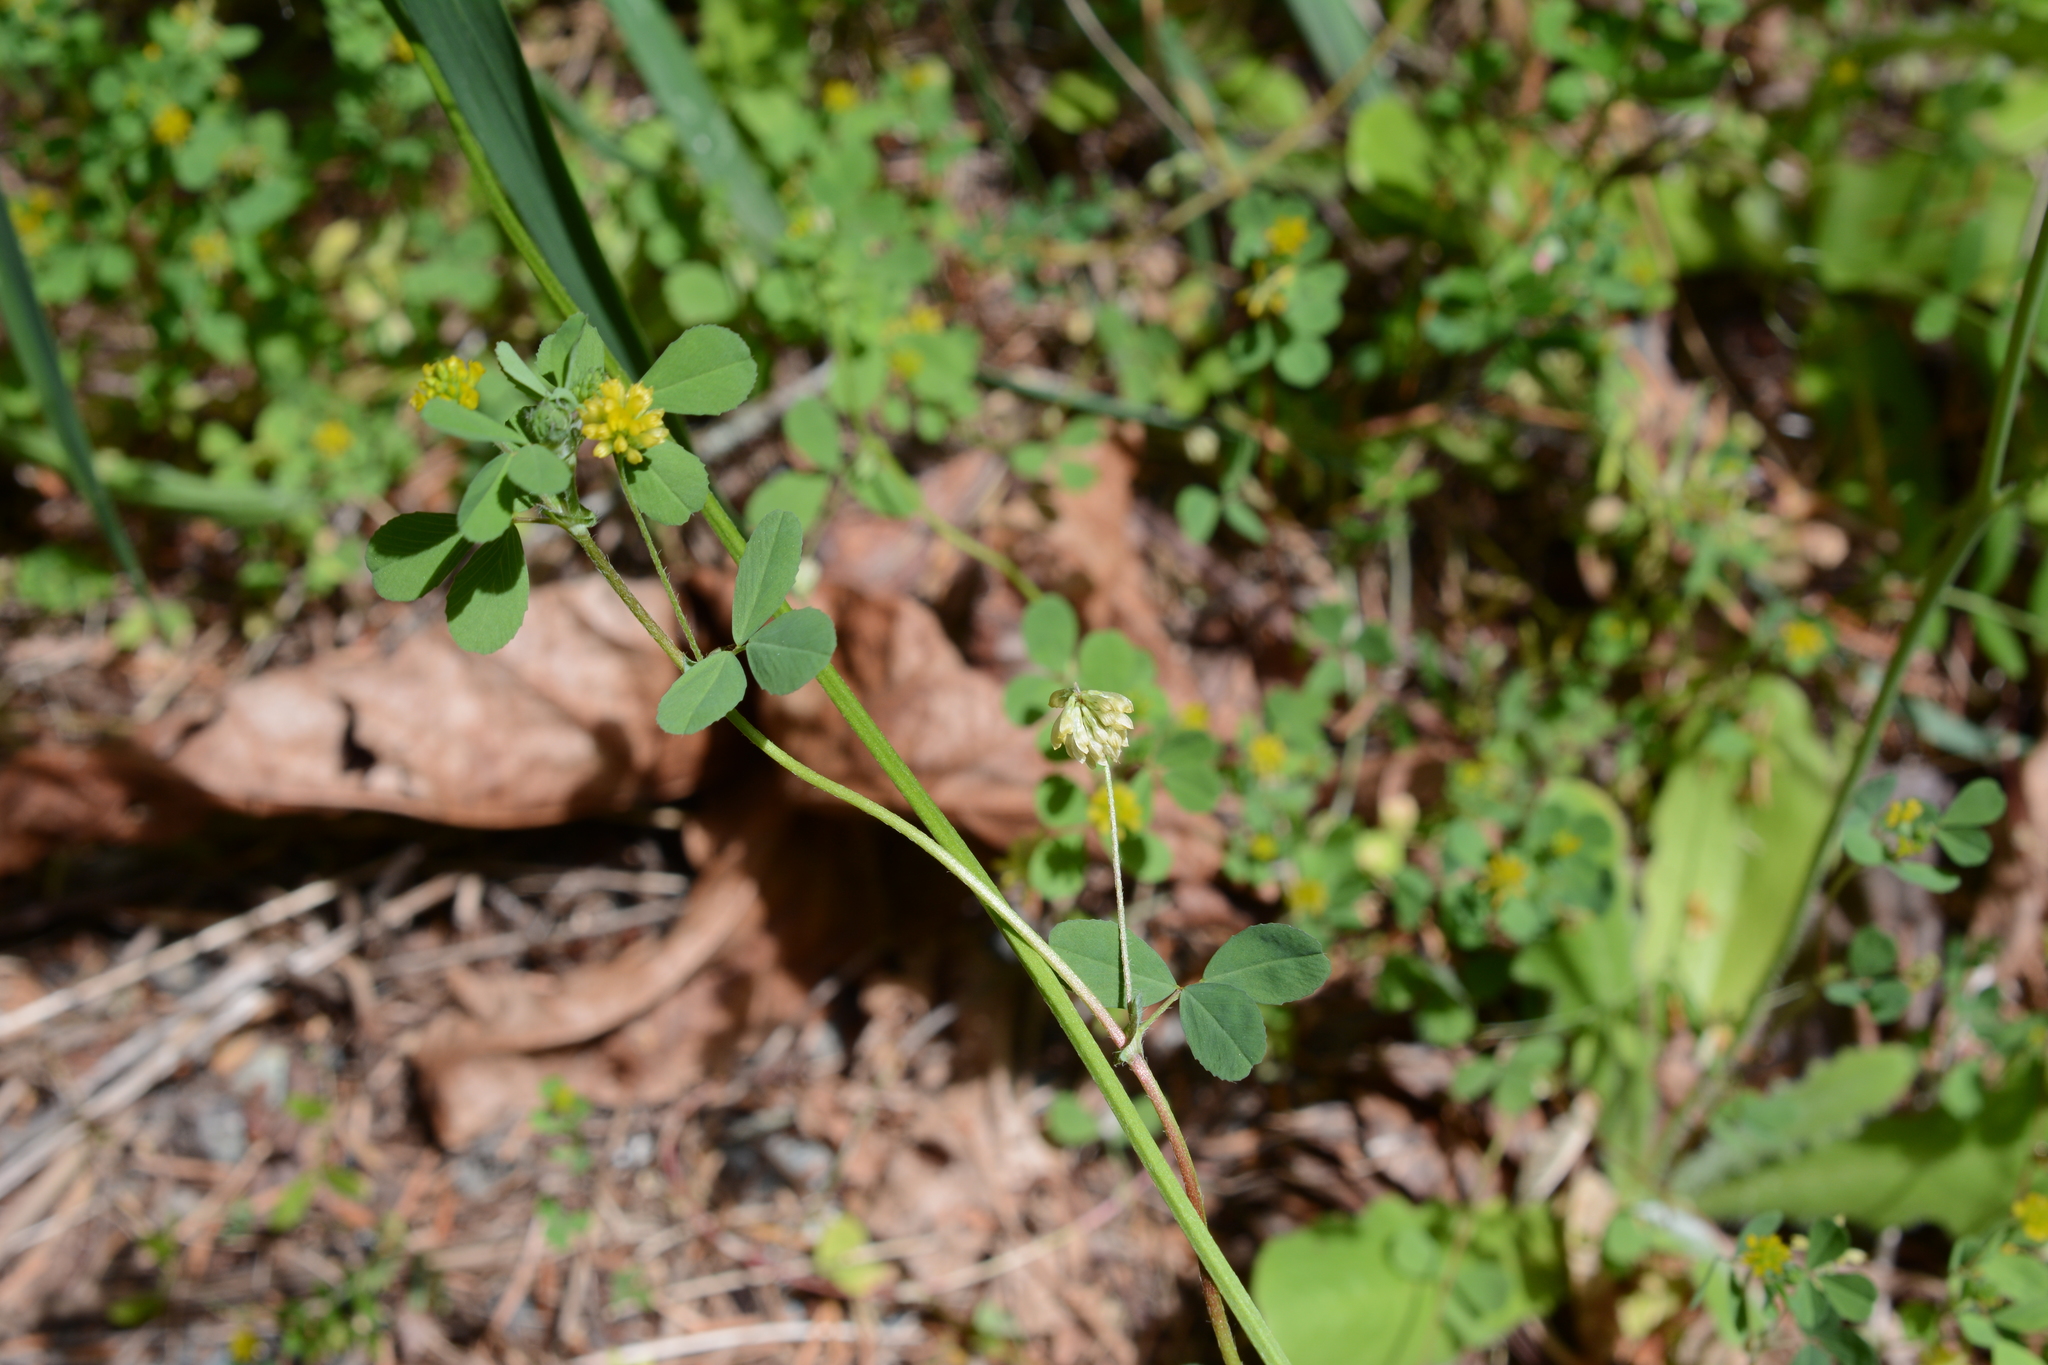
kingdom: Plantae
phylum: Tracheophyta
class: Magnoliopsida
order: Fabales
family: Fabaceae
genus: Trifolium
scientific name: Trifolium dubium
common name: Suckling clover
